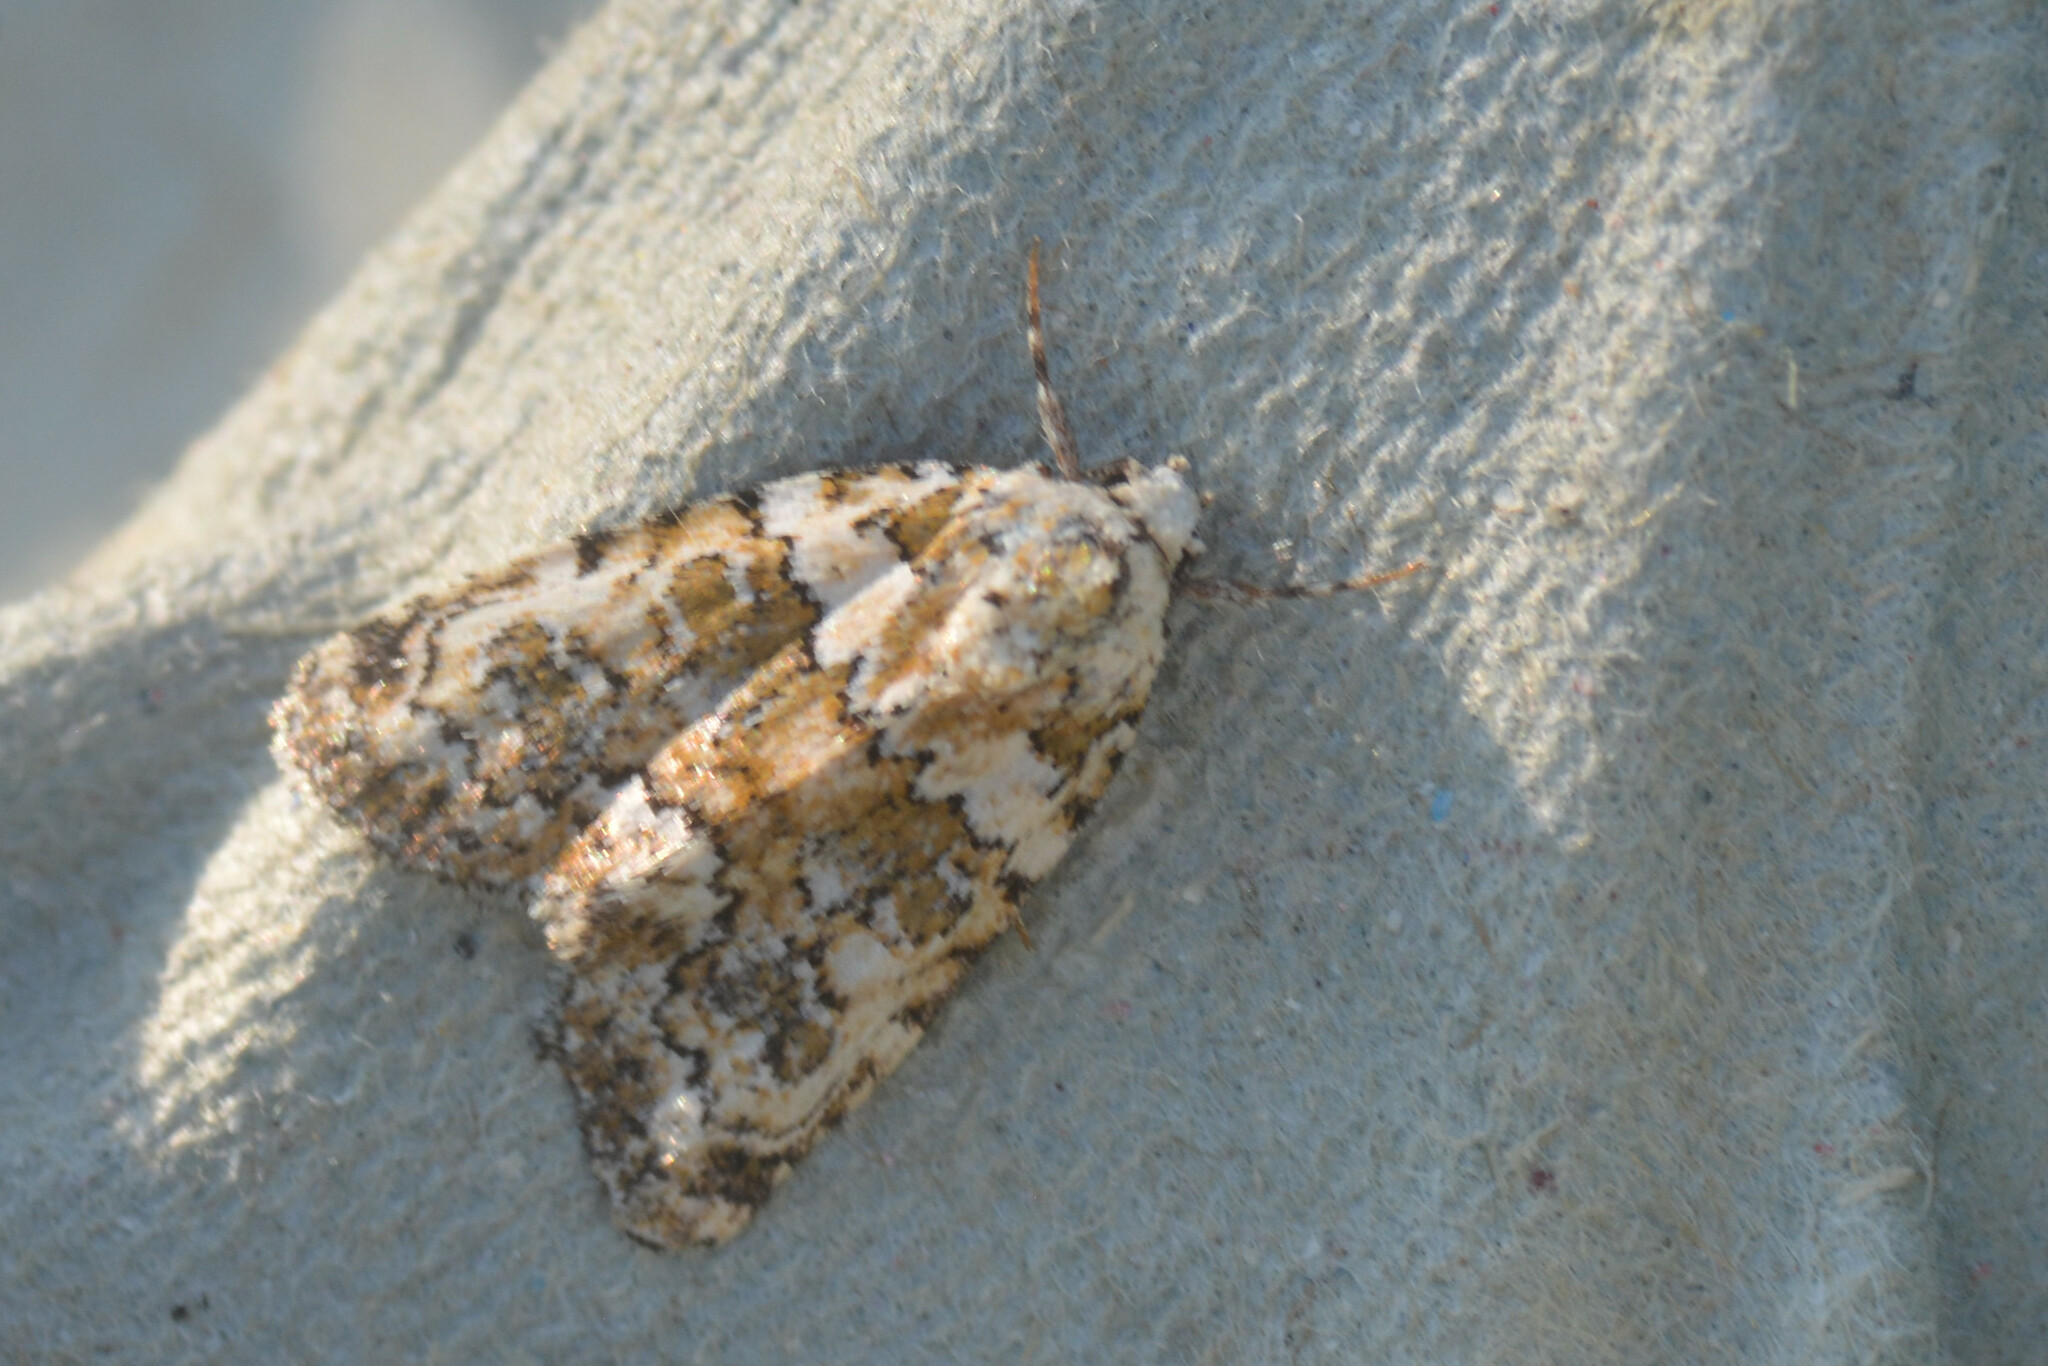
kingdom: Animalia
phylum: Arthropoda
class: Insecta
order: Lepidoptera
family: Noctuidae
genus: Bryophila
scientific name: Bryophila domestica
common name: Marbled beauty
